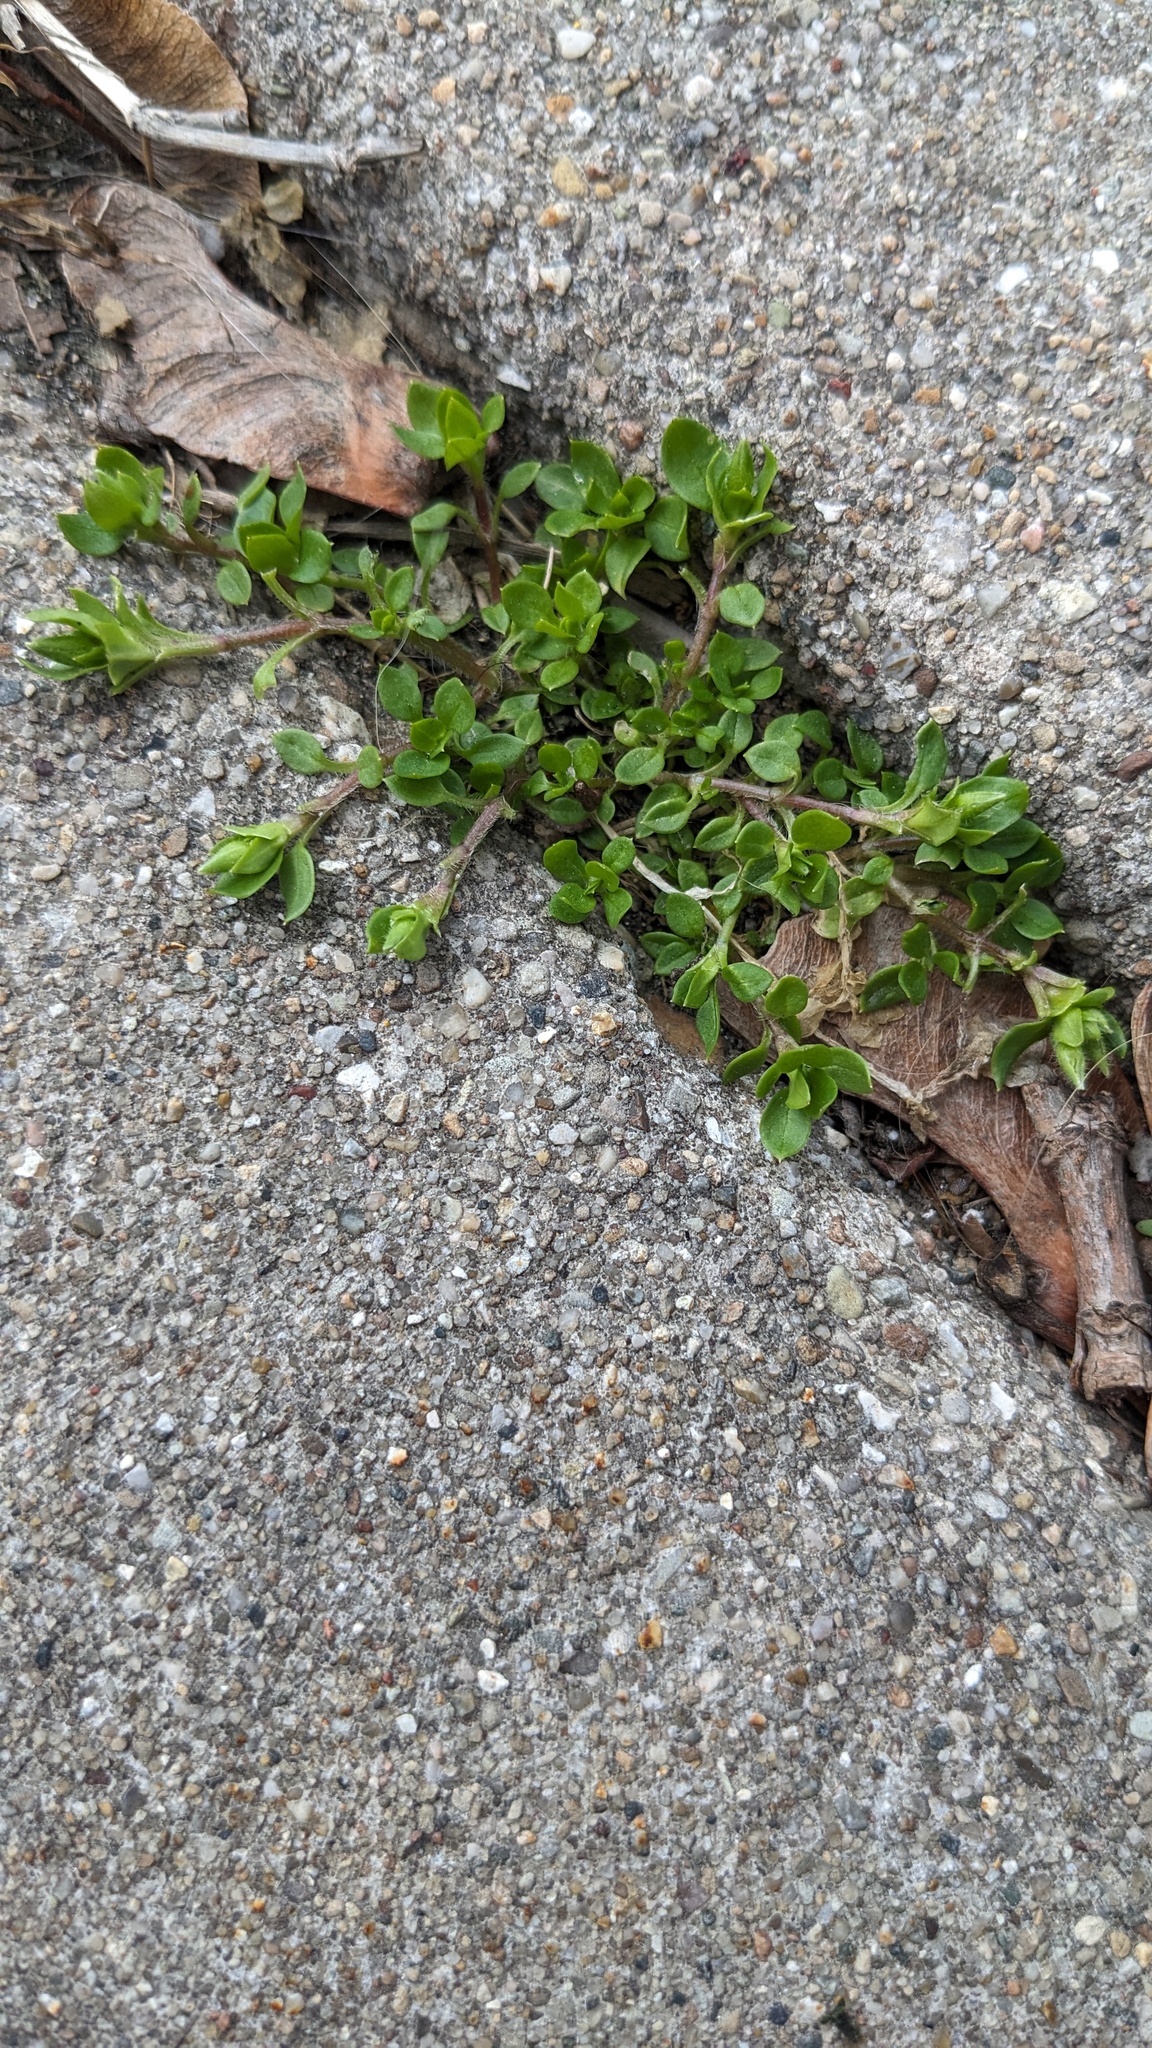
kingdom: Plantae
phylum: Tracheophyta
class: Magnoliopsida
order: Caryophyllales
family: Caryophyllaceae
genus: Stellaria
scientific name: Stellaria media
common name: Common chickweed
